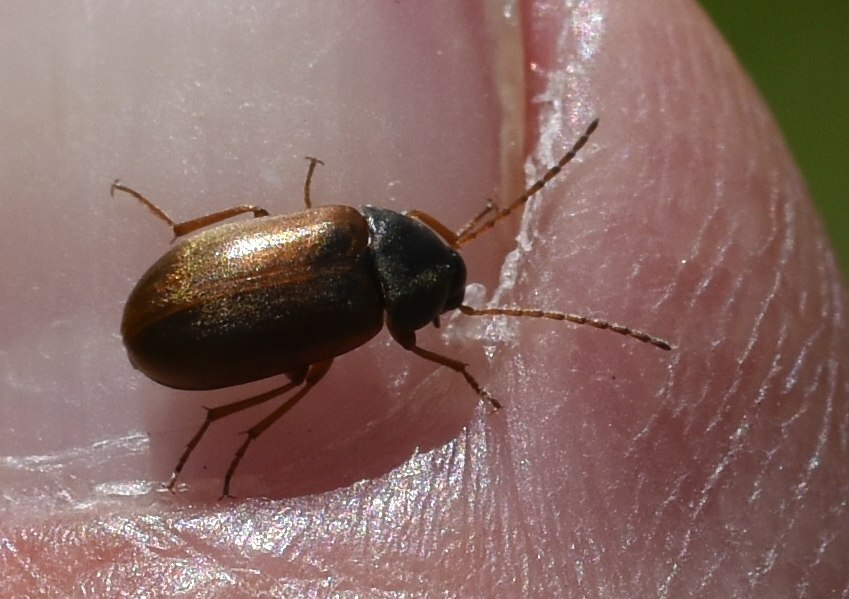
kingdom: Animalia
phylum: Arthropoda
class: Insecta
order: Coleoptera
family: Tenebrionidae
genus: Isomira
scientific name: Isomira murina
